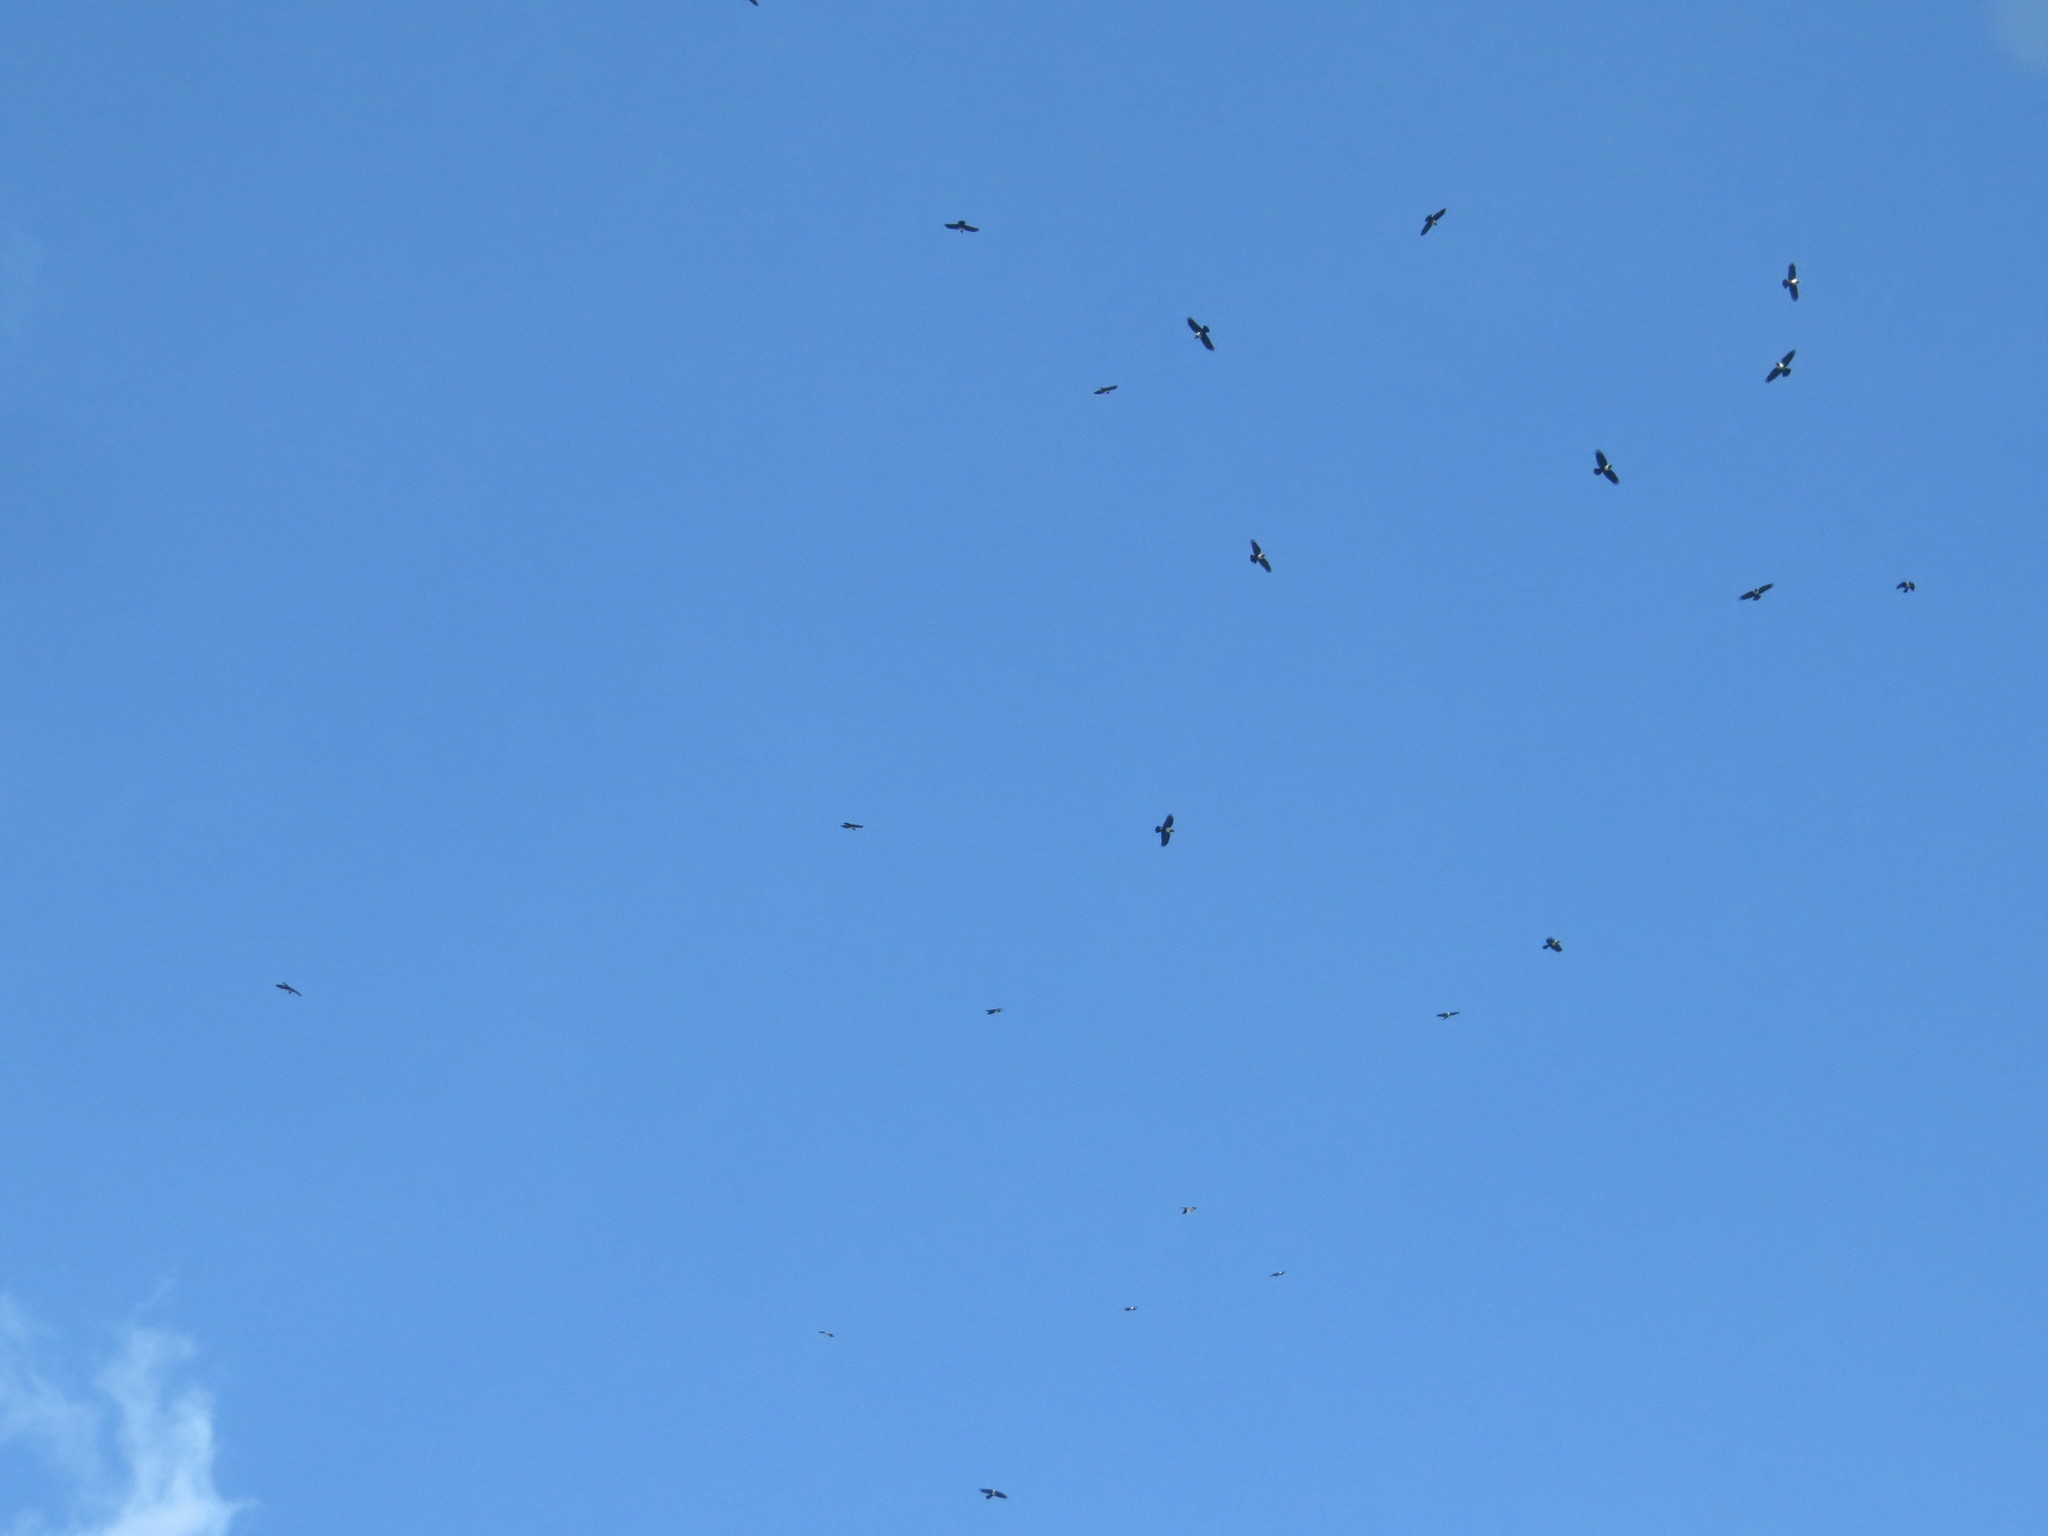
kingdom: Animalia
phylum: Chordata
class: Aves
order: Passeriformes
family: Corvidae
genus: Corvus
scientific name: Corvus albus
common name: Pied crow
